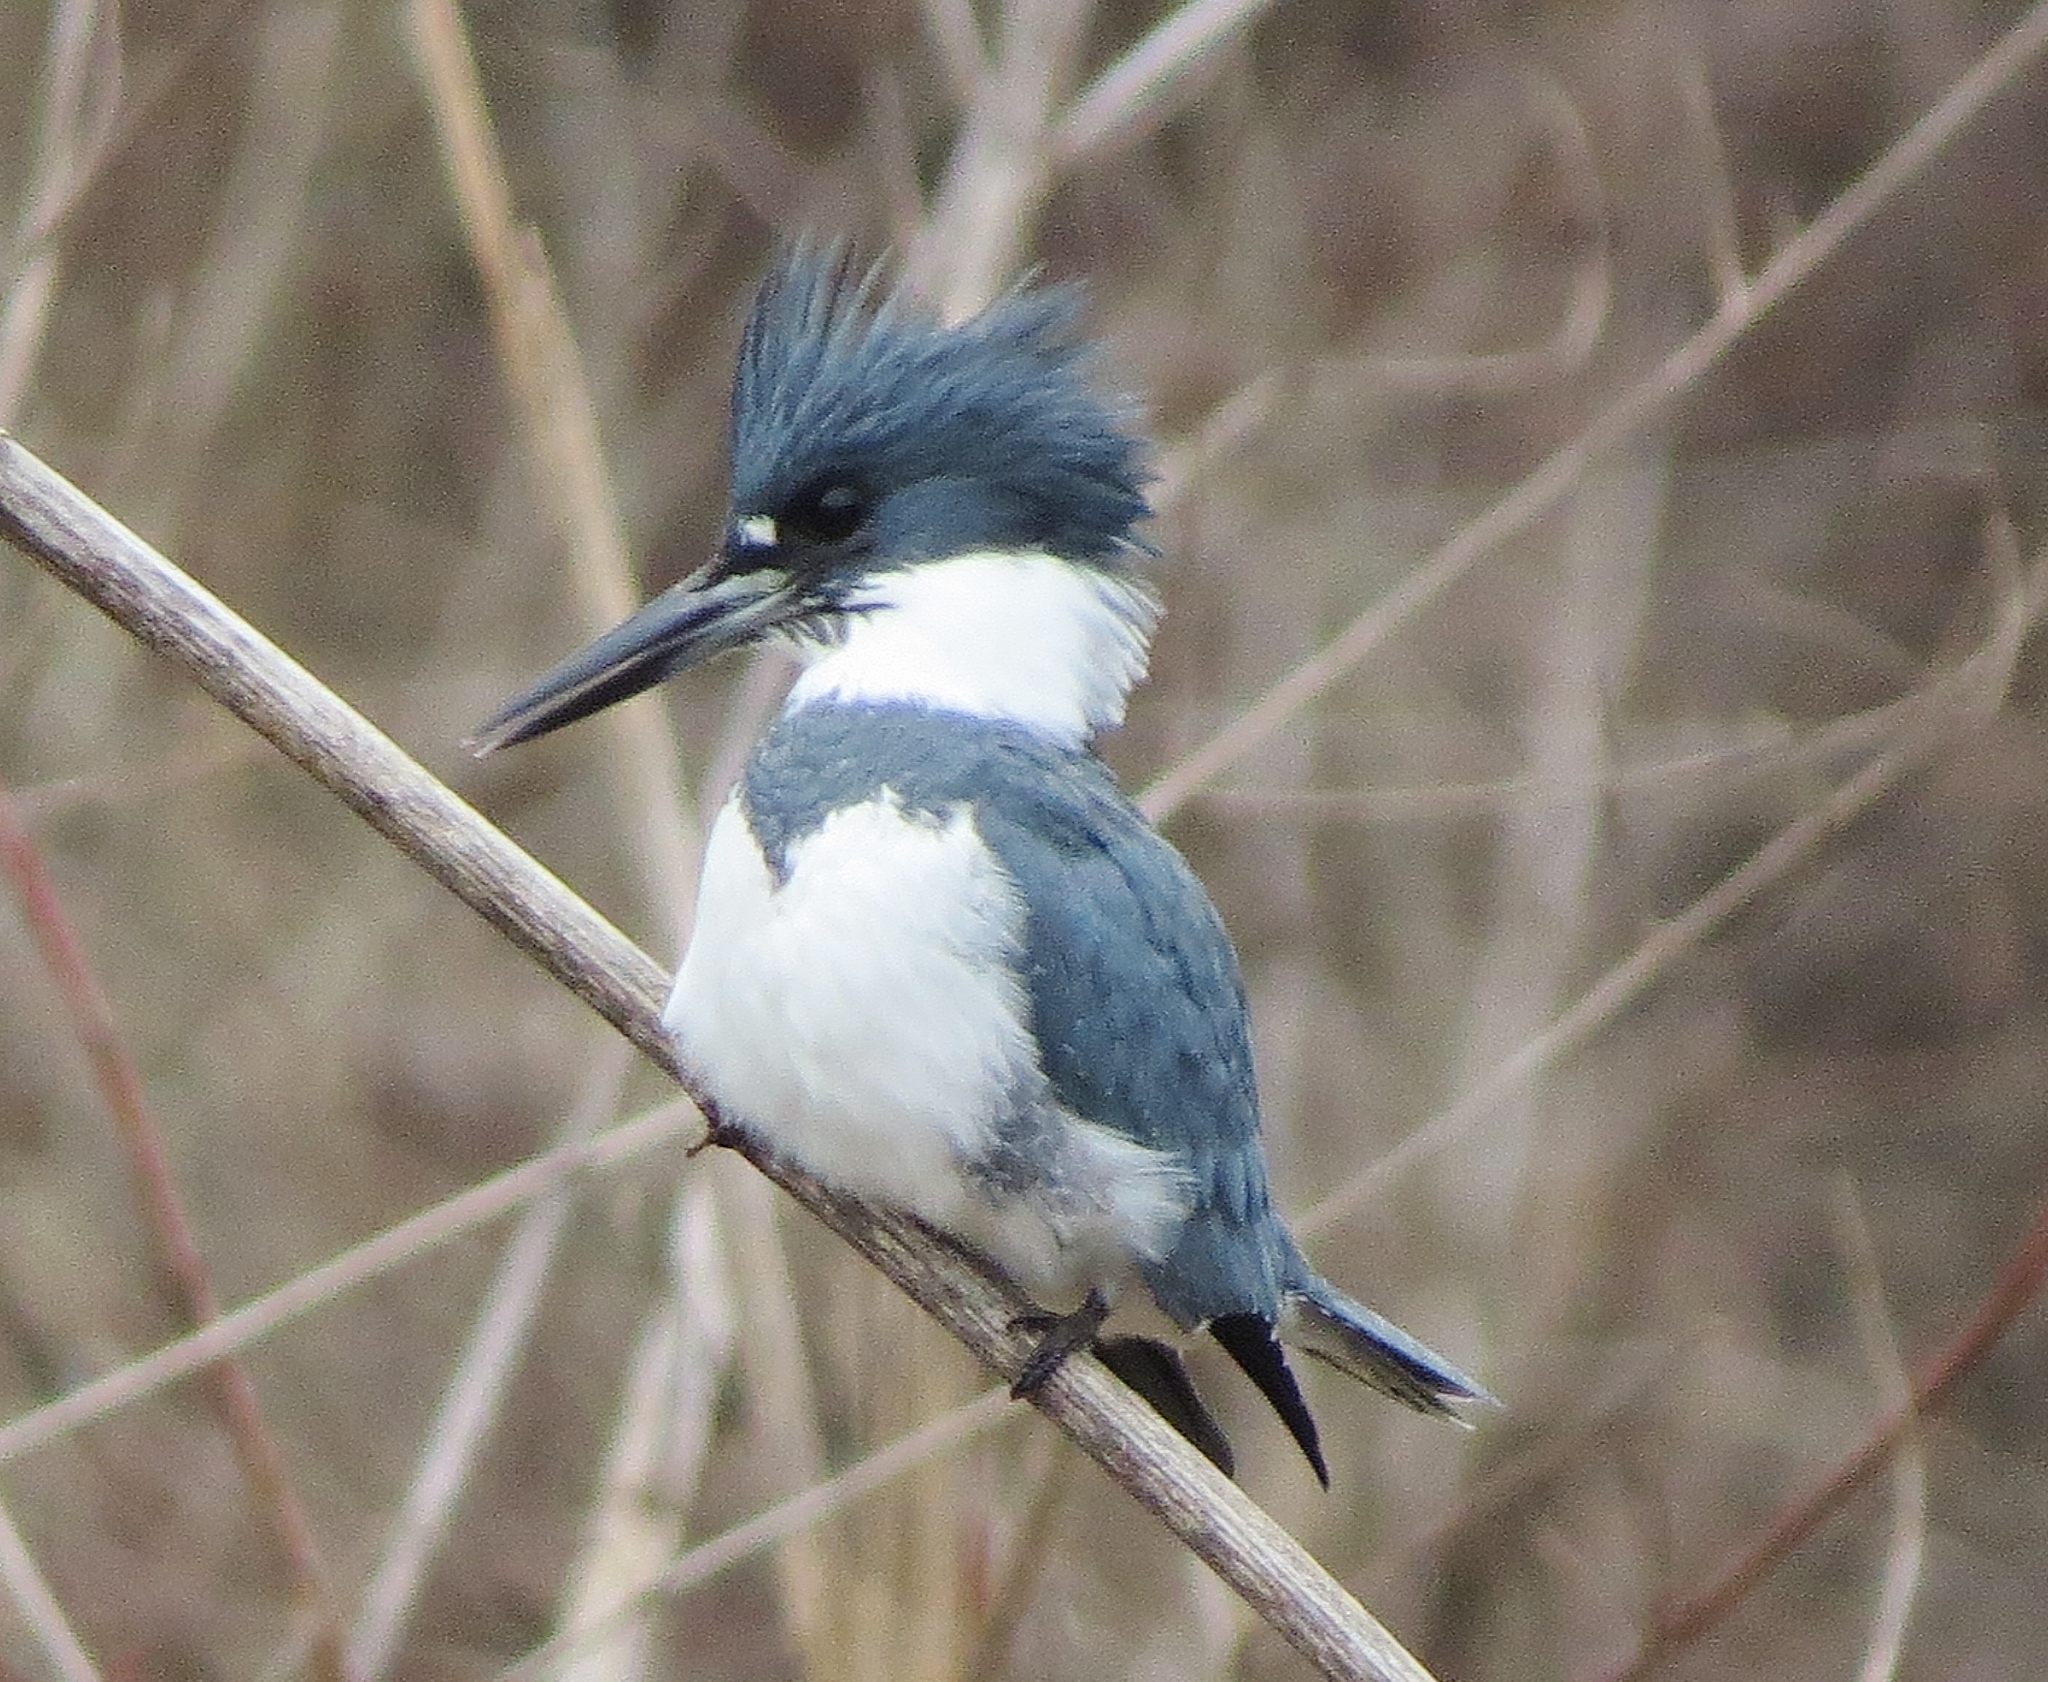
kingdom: Animalia
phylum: Chordata
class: Aves
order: Coraciiformes
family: Alcedinidae
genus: Megaceryle
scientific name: Megaceryle alcyon
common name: Belted kingfisher
